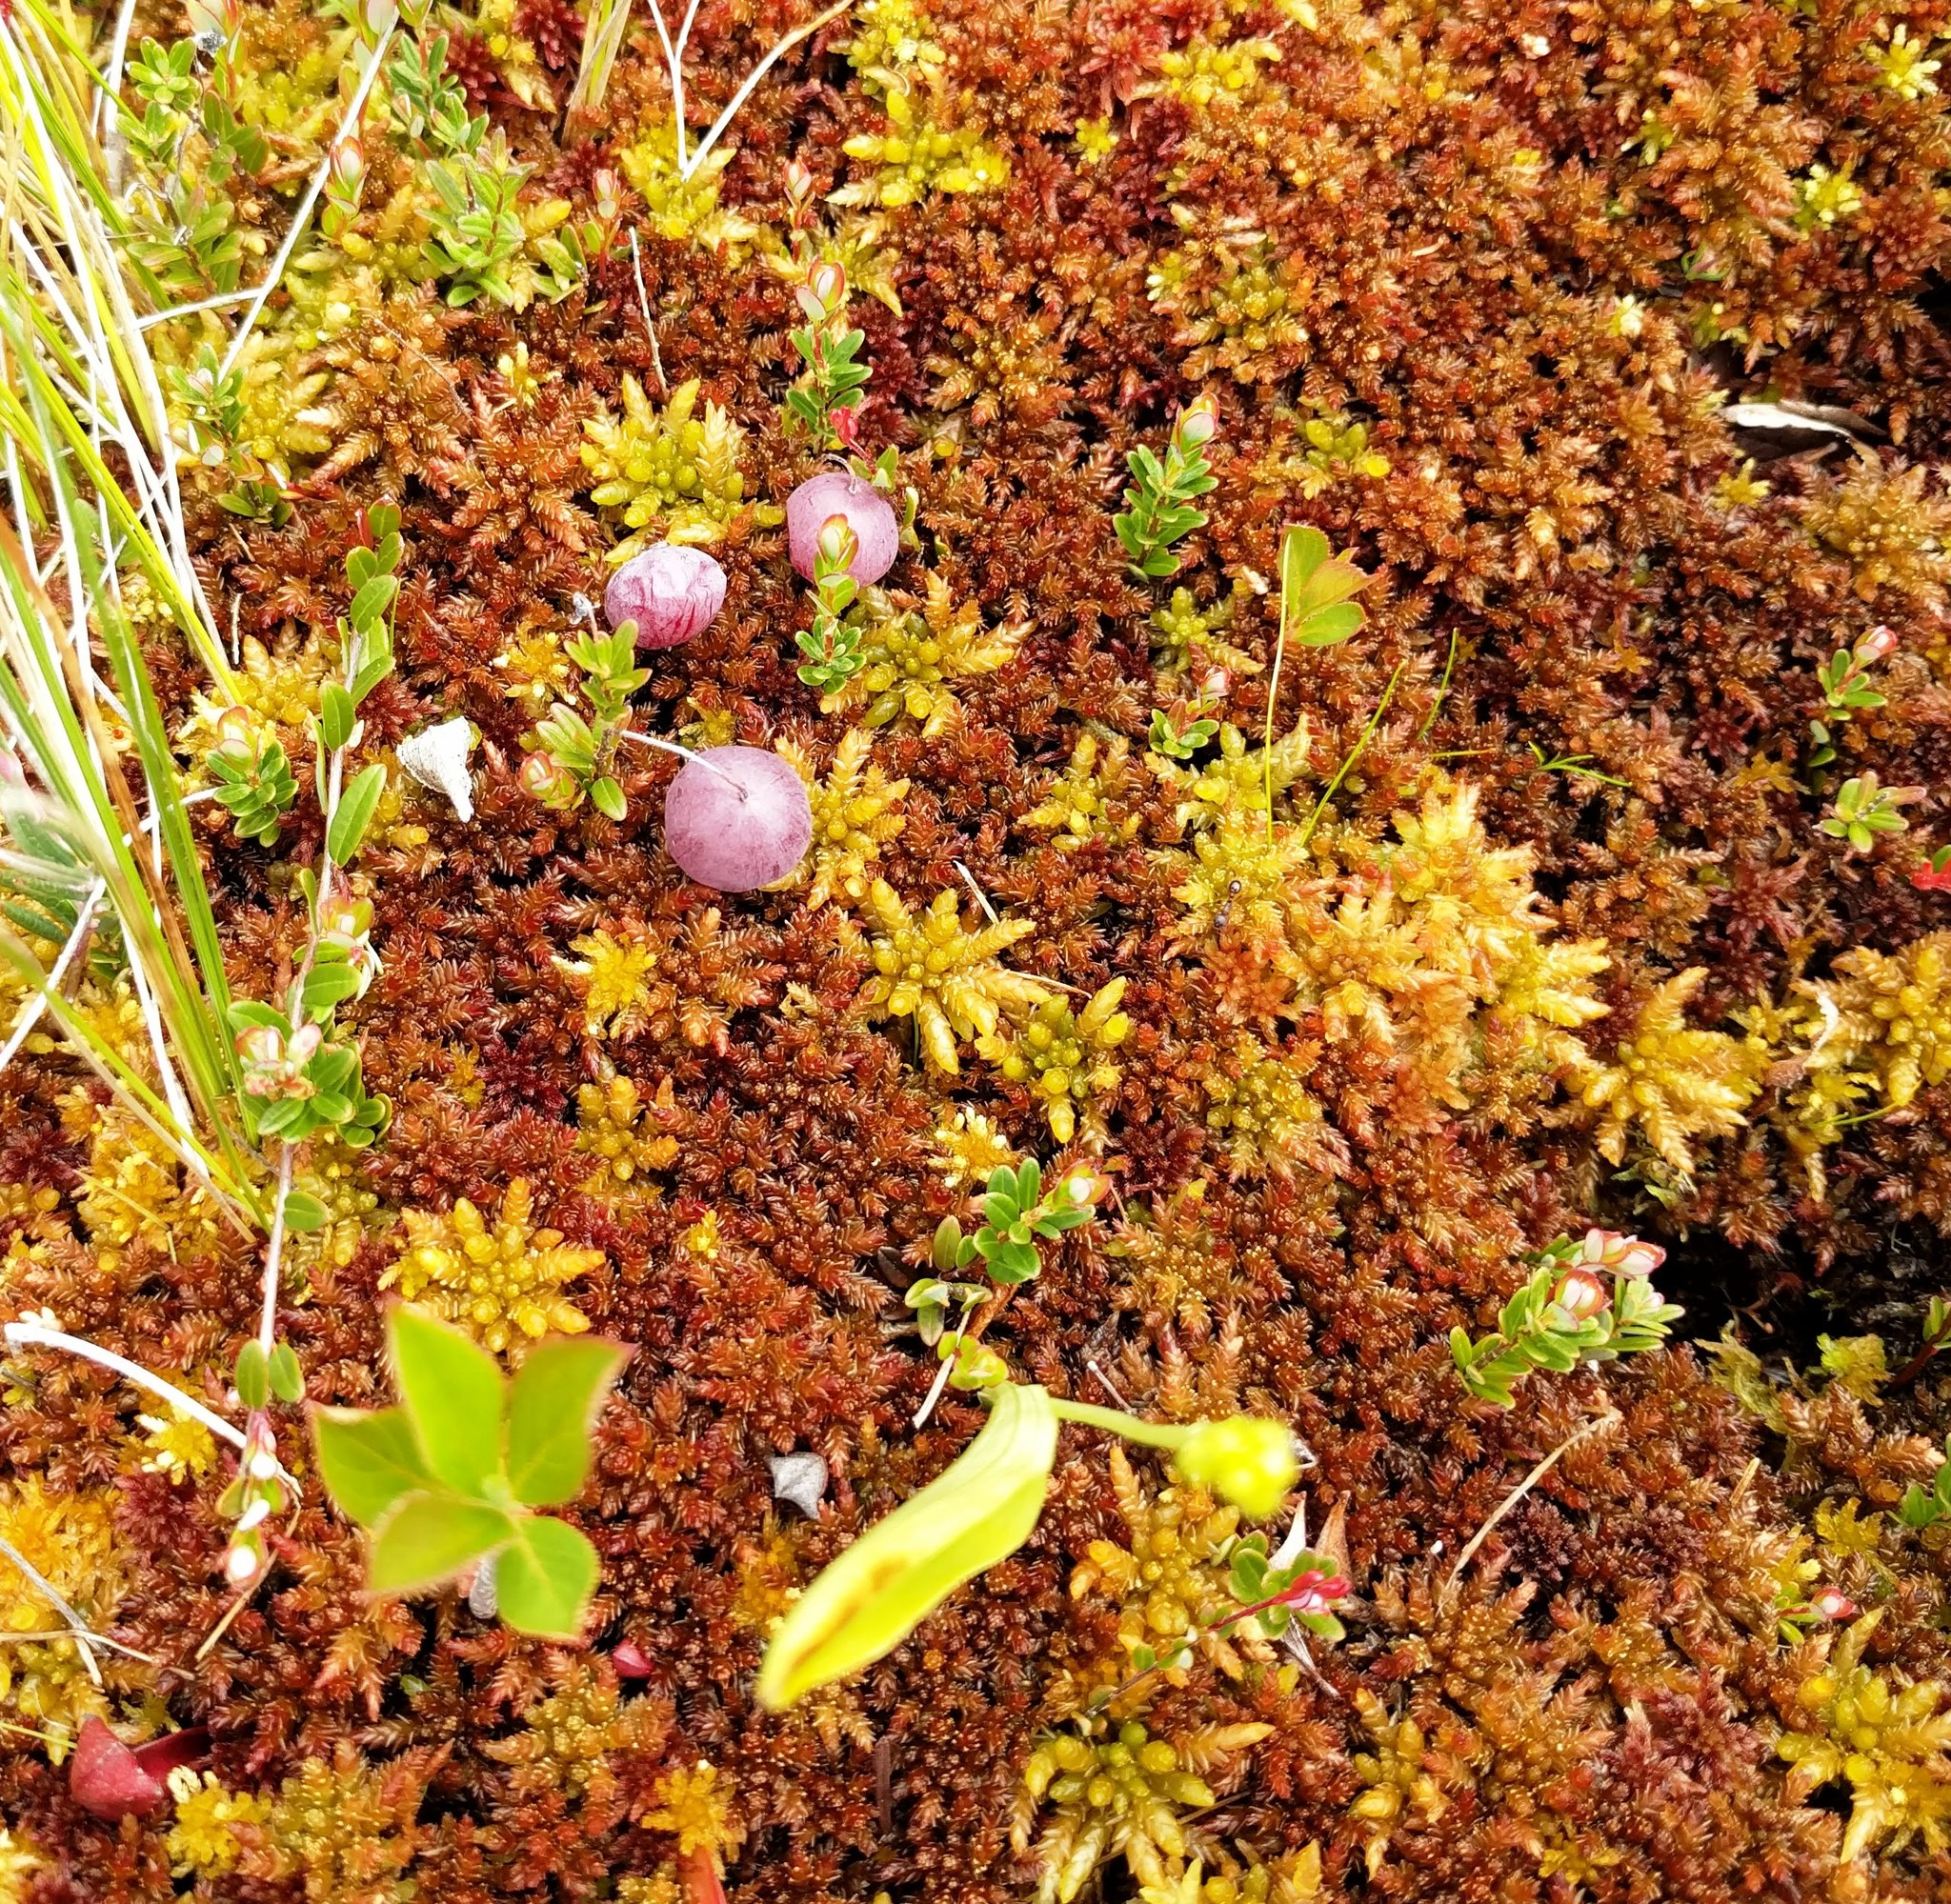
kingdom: Plantae
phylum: Tracheophyta
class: Magnoliopsida
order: Ericales
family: Ericaceae
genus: Vaccinium
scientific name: Vaccinium macrocarpon
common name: American cranberry
